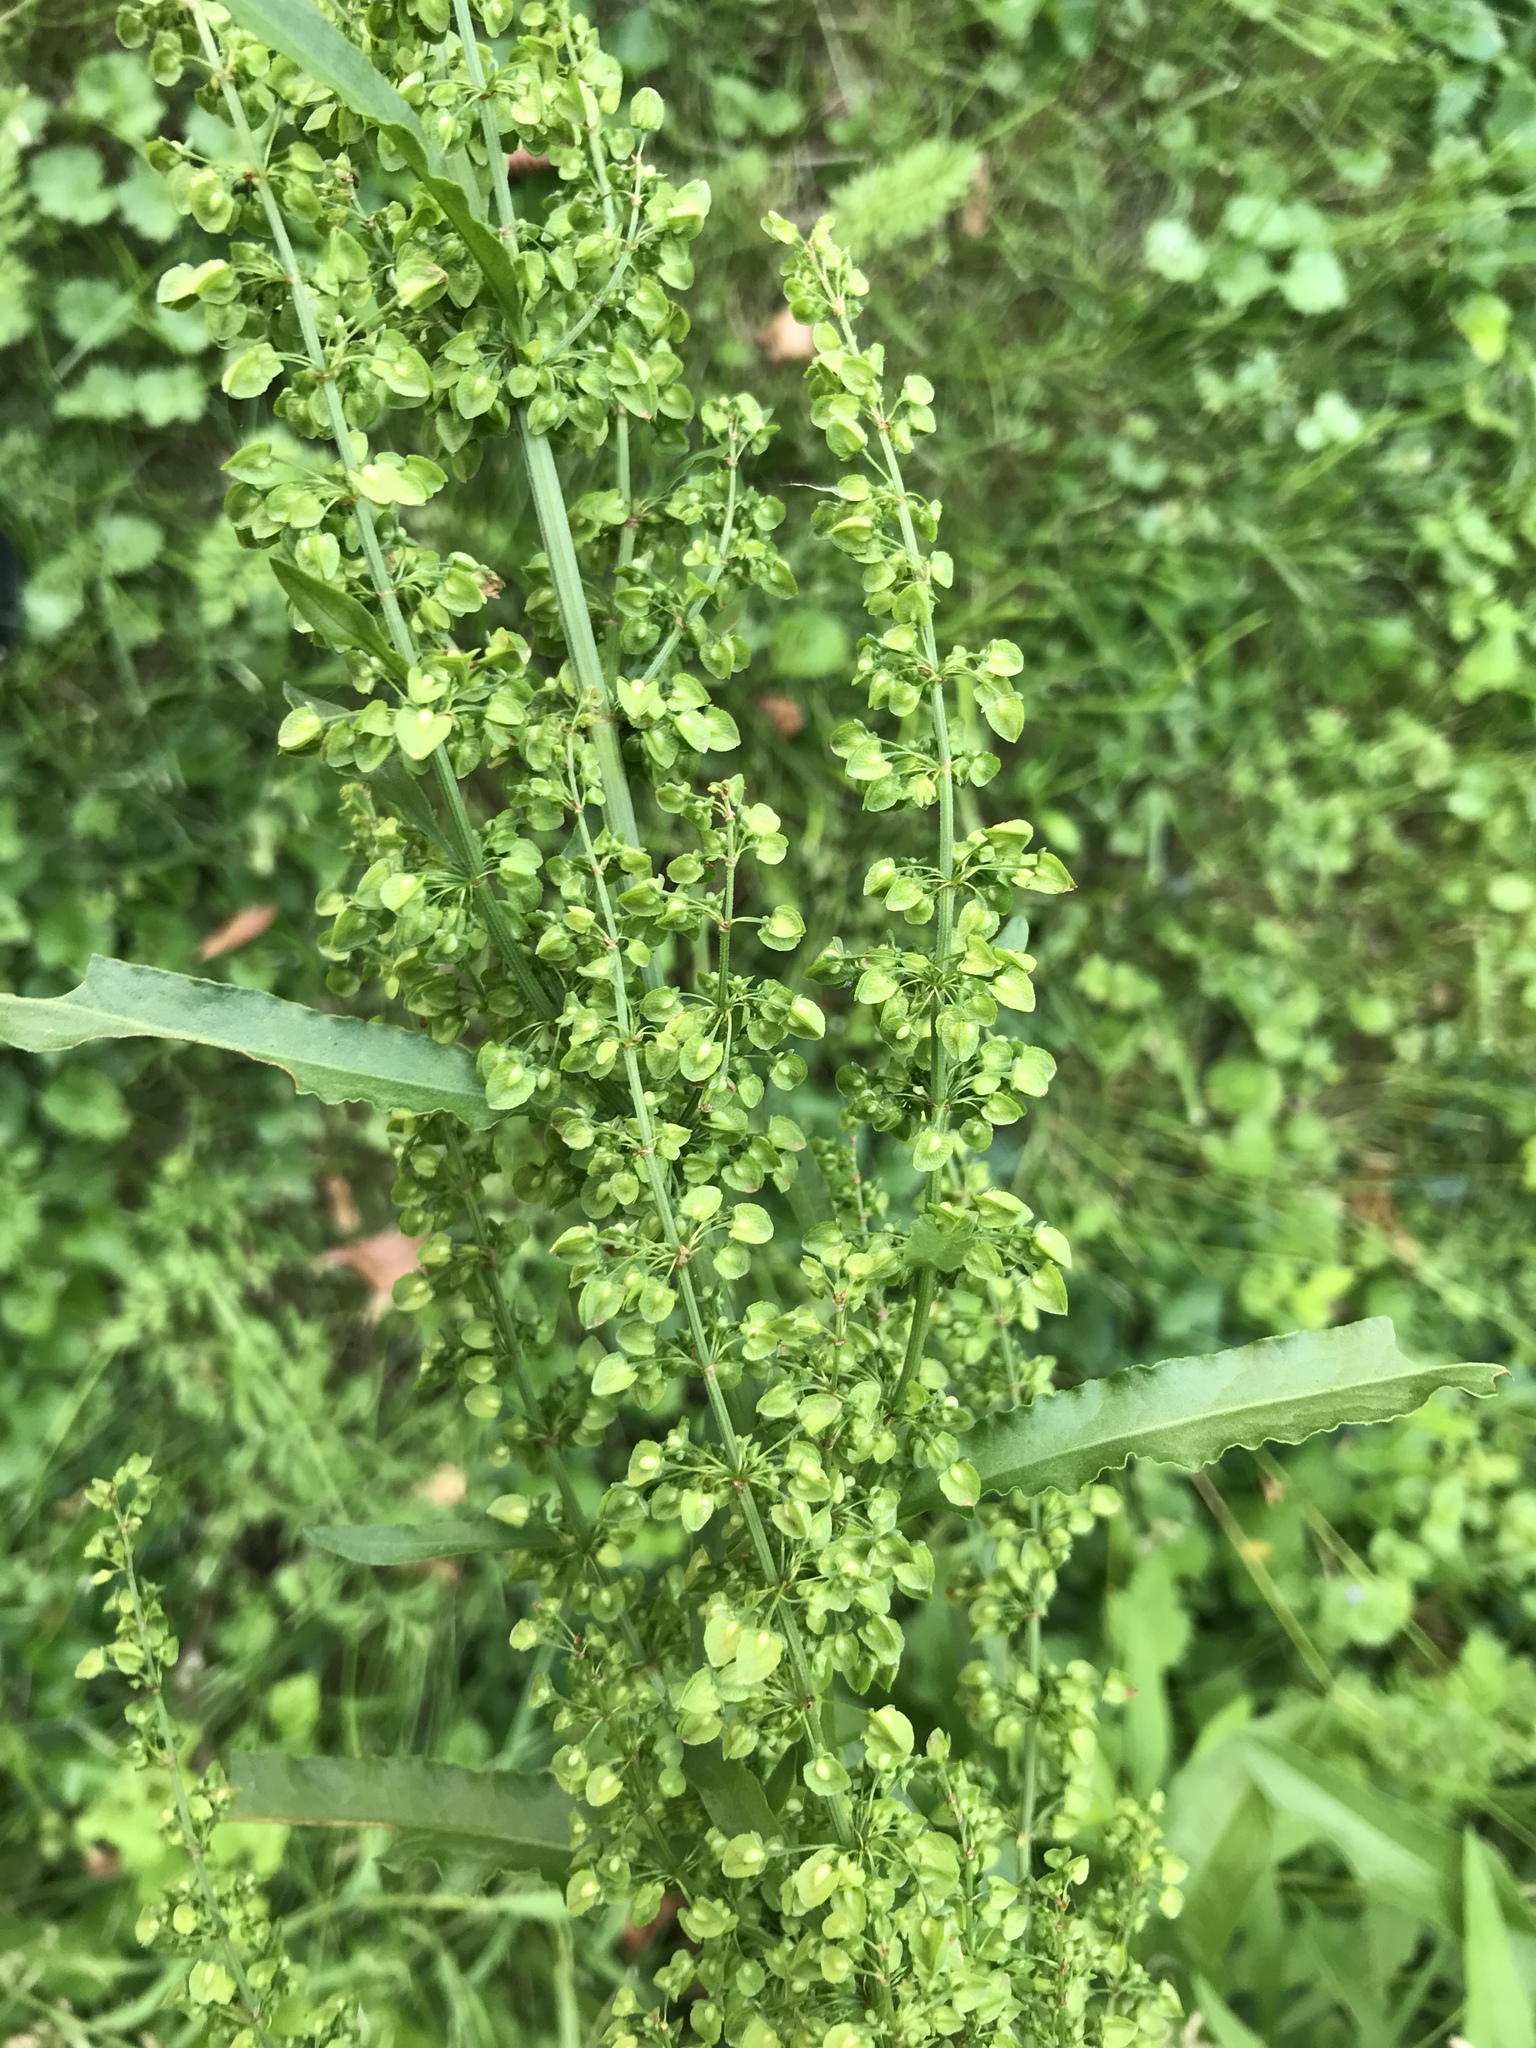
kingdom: Plantae
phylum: Tracheophyta
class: Magnoliopsida
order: Caryophyllales
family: Polygonaceae
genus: Rumex
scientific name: Rumex crispus
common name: Curled dock
